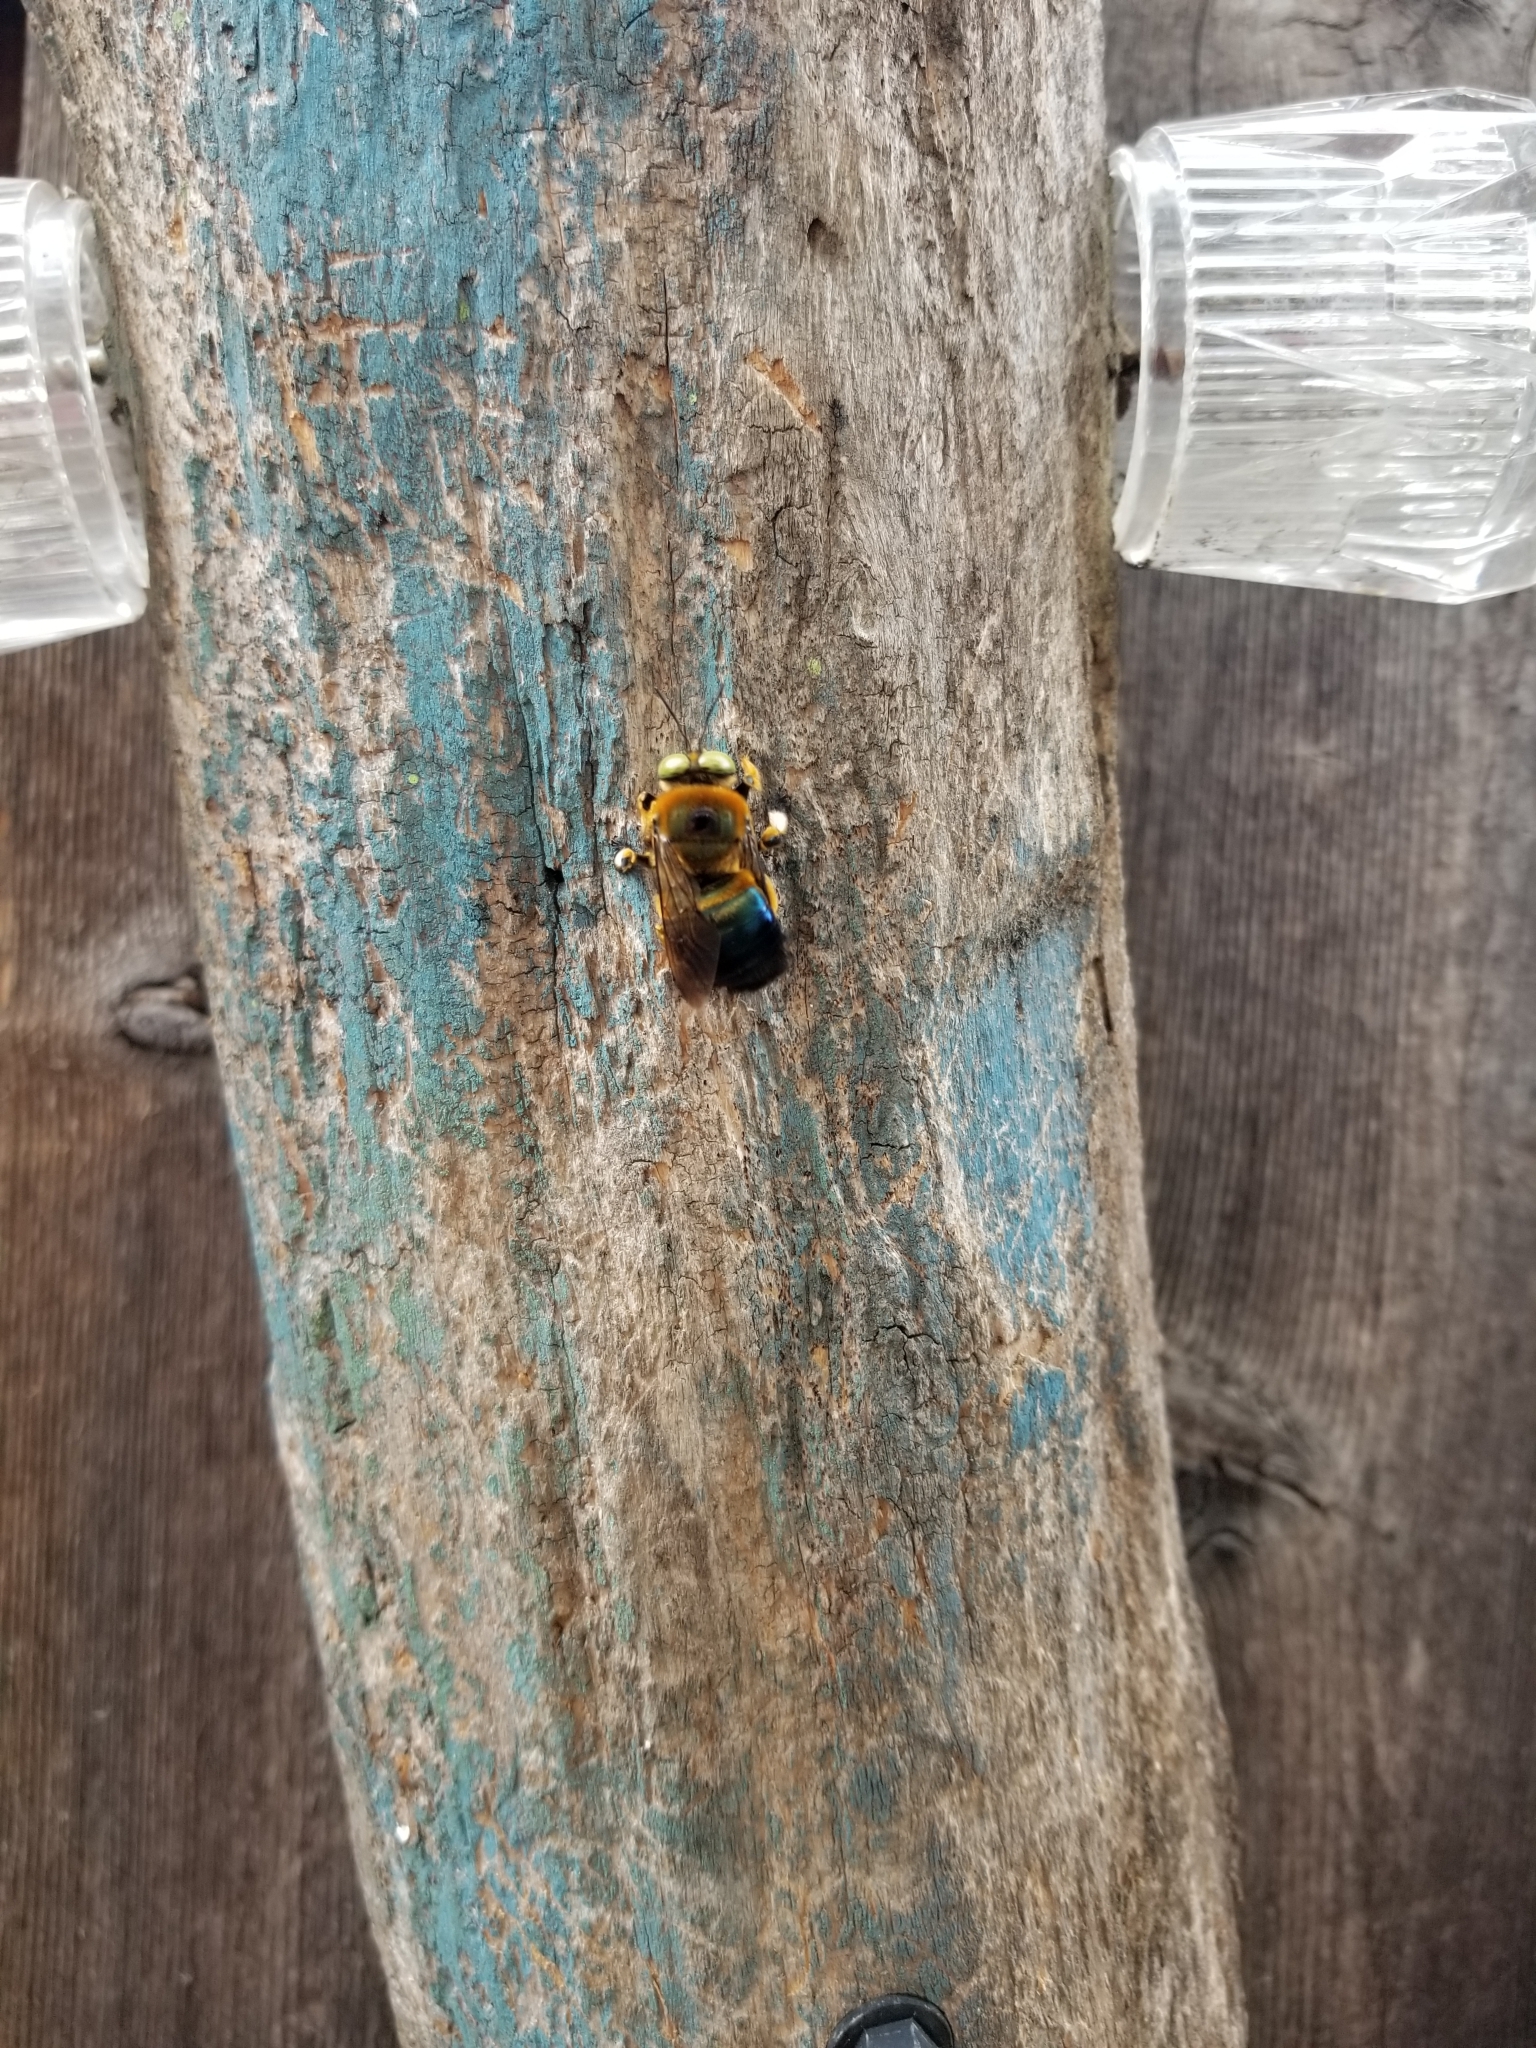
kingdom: Animalia
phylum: Arthropoda
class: Insecta
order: Hymenoptera
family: Apidae
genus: Xylocopa
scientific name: Xylocopa micans
